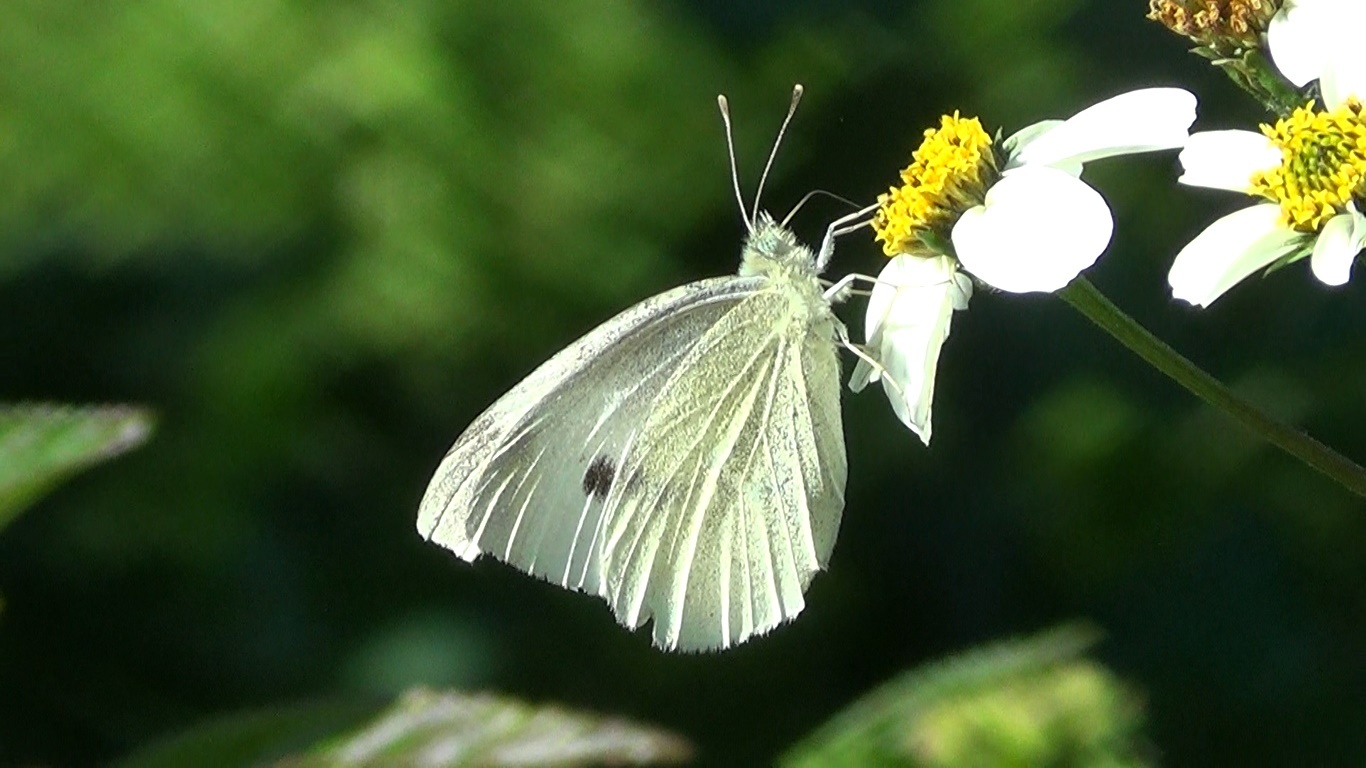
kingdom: Animalia
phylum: Arthropoda
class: Insecta
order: Lepidoptera
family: Pieridae
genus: Pieris
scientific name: Pieris rapae
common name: Small white
